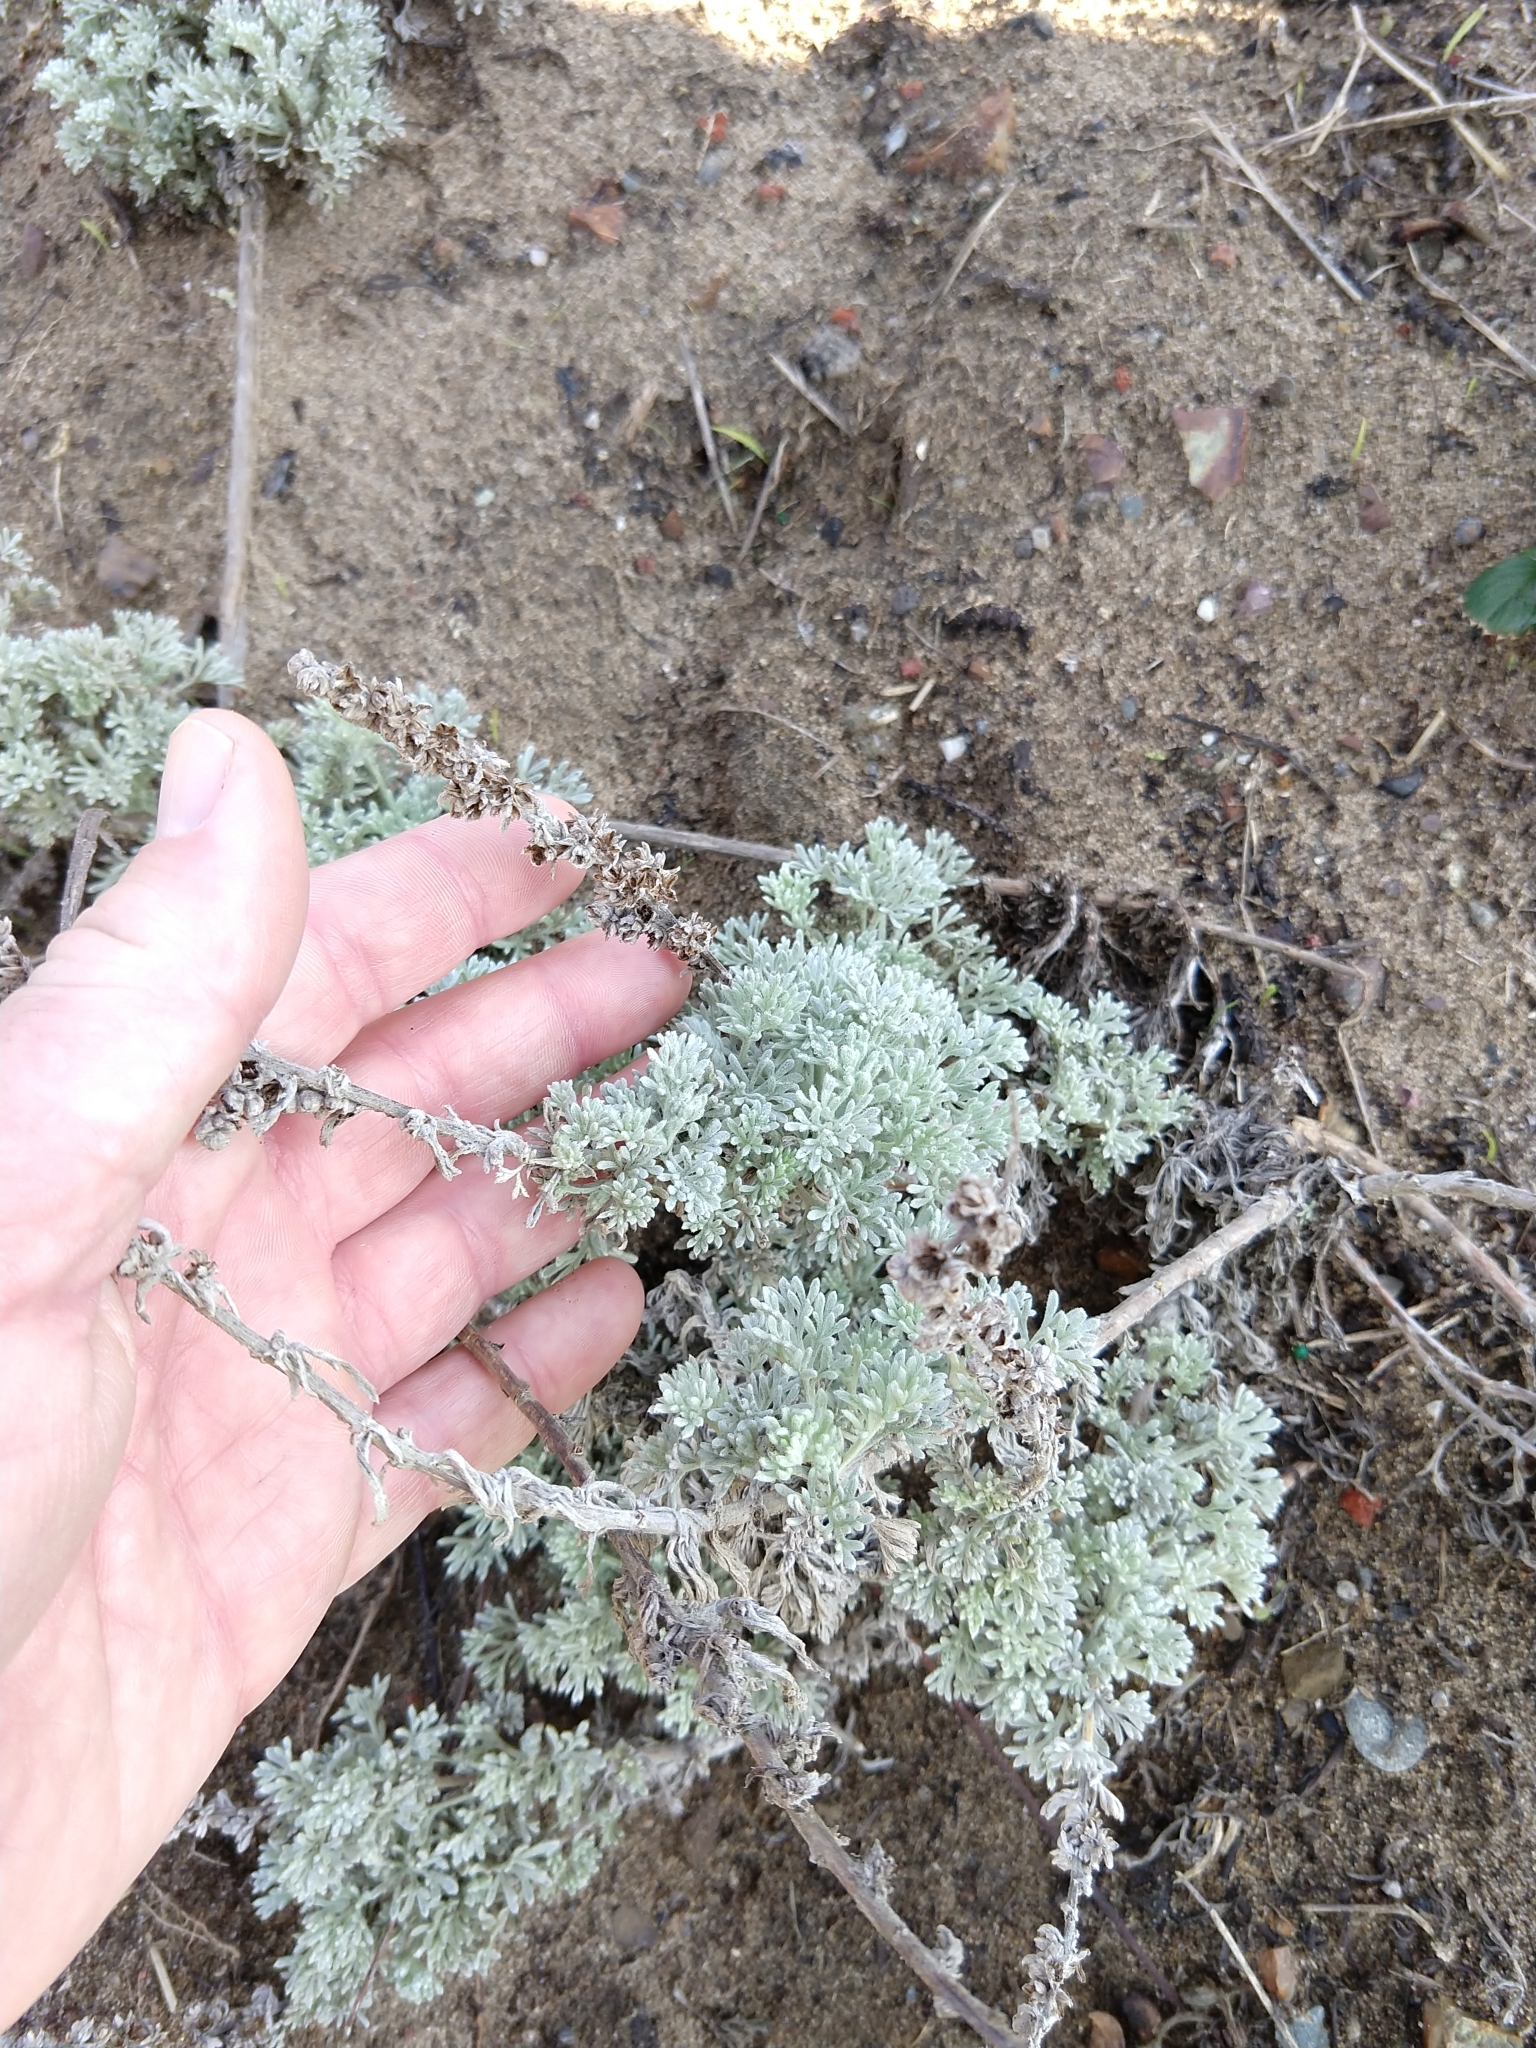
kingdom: Plantae
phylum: Tracheophyta
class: Magnoliopsida
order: Asterales
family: Asteraceae
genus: Artemisia
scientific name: Artemisia pycnocephala
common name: Coastal sagewort
